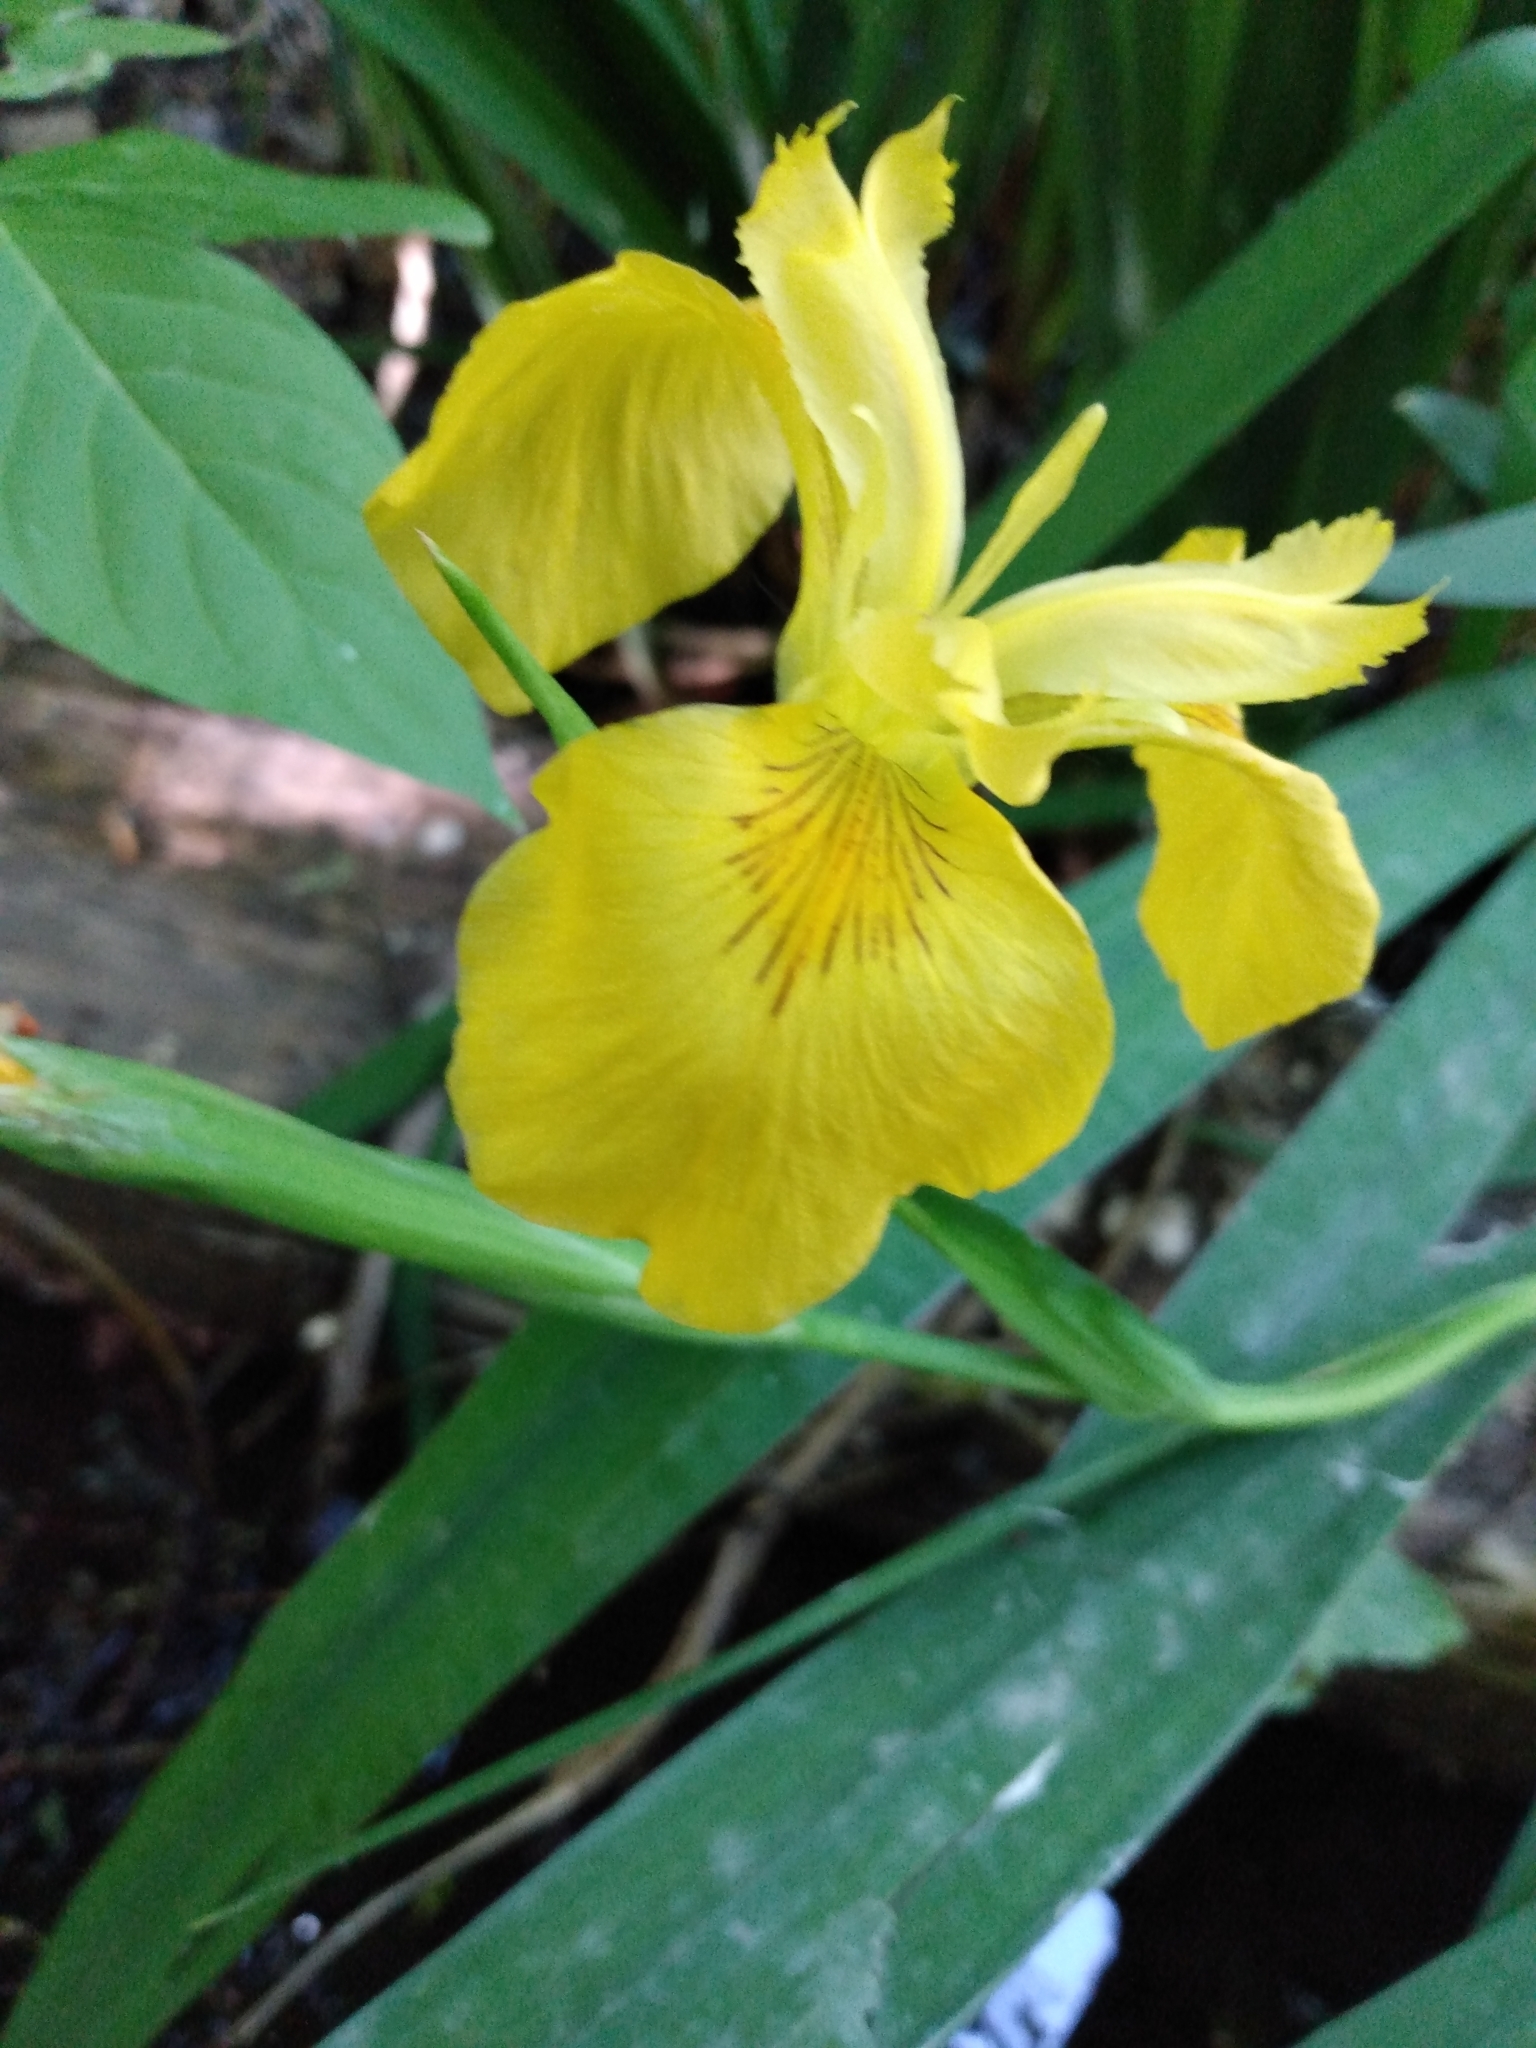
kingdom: Plantae
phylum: Tracheophyta
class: Liliopsida
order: Asparagales
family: Iridaceae
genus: Iris
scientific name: Iris pseudacorus
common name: Yellow flag
